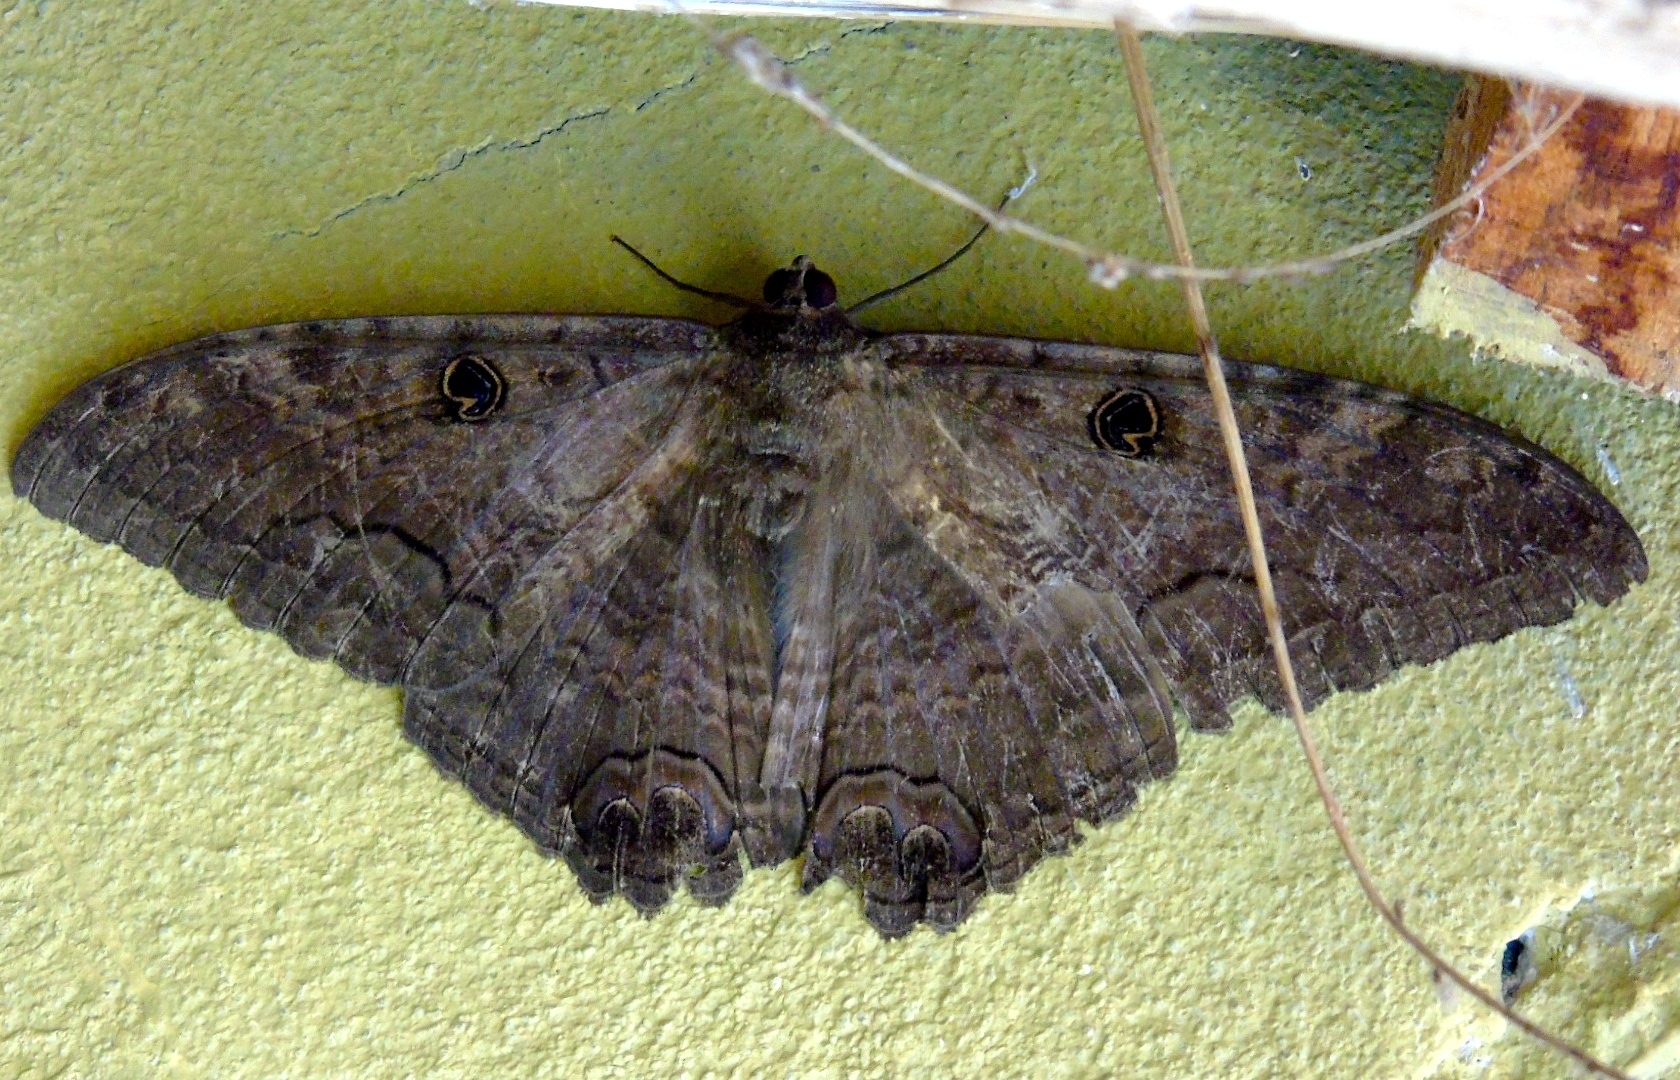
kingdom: Animalia
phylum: Arthropoda
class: Insecta
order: Lepidoptera
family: Erebidae
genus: Ascalapha
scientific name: Ascalapha odorata
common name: Black witch
